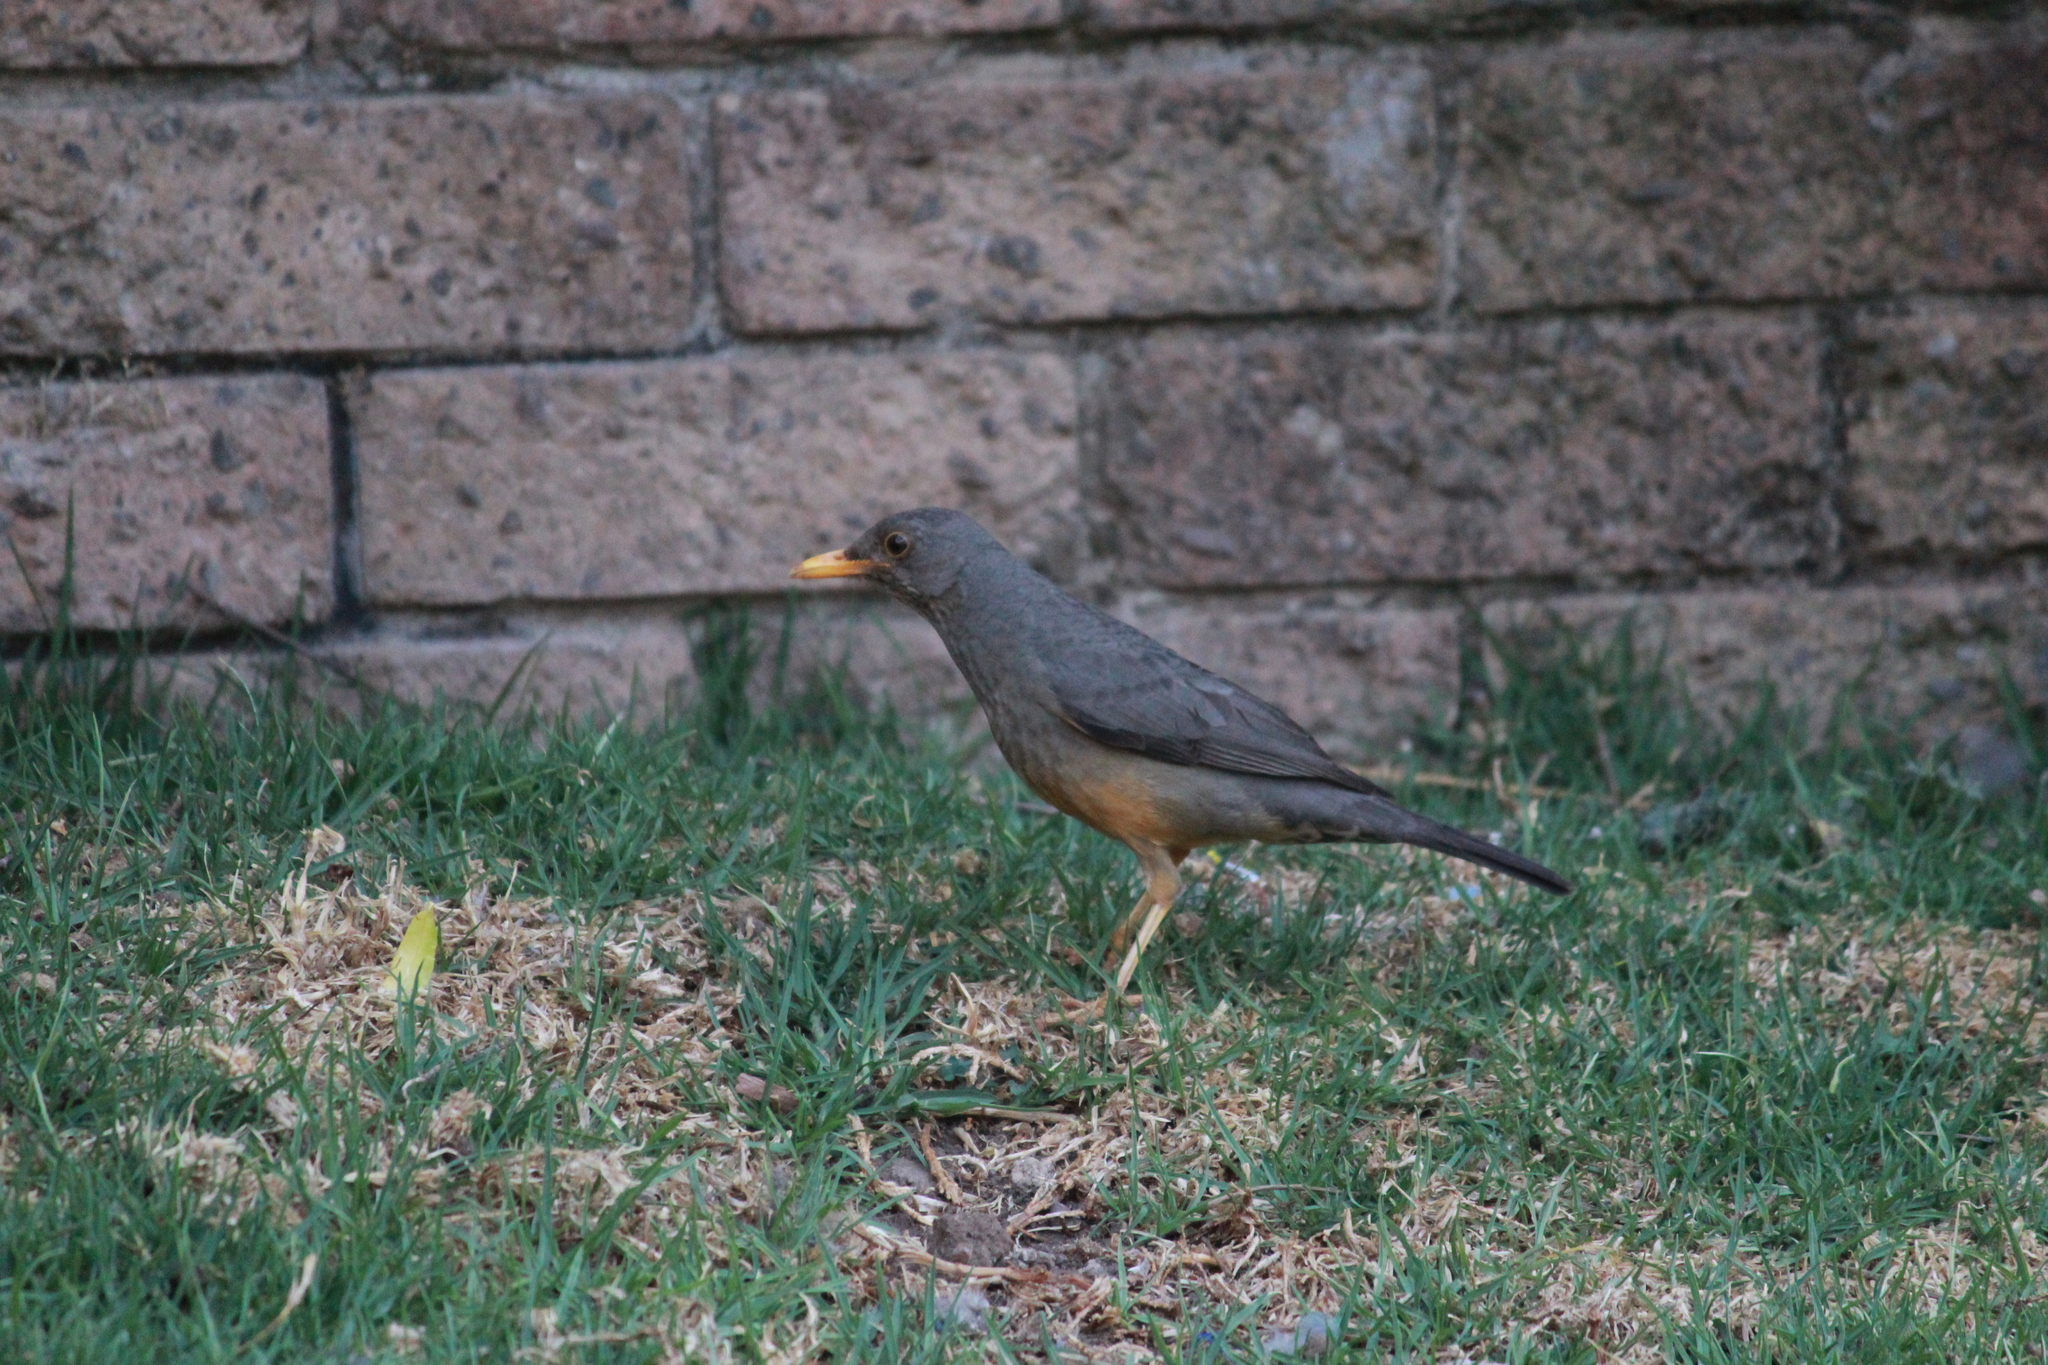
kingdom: Animalia
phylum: Chordata
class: Aves
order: Passeriformes
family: Turdidae
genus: Turdus
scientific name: Turdus smithi
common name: Karoo thrush
